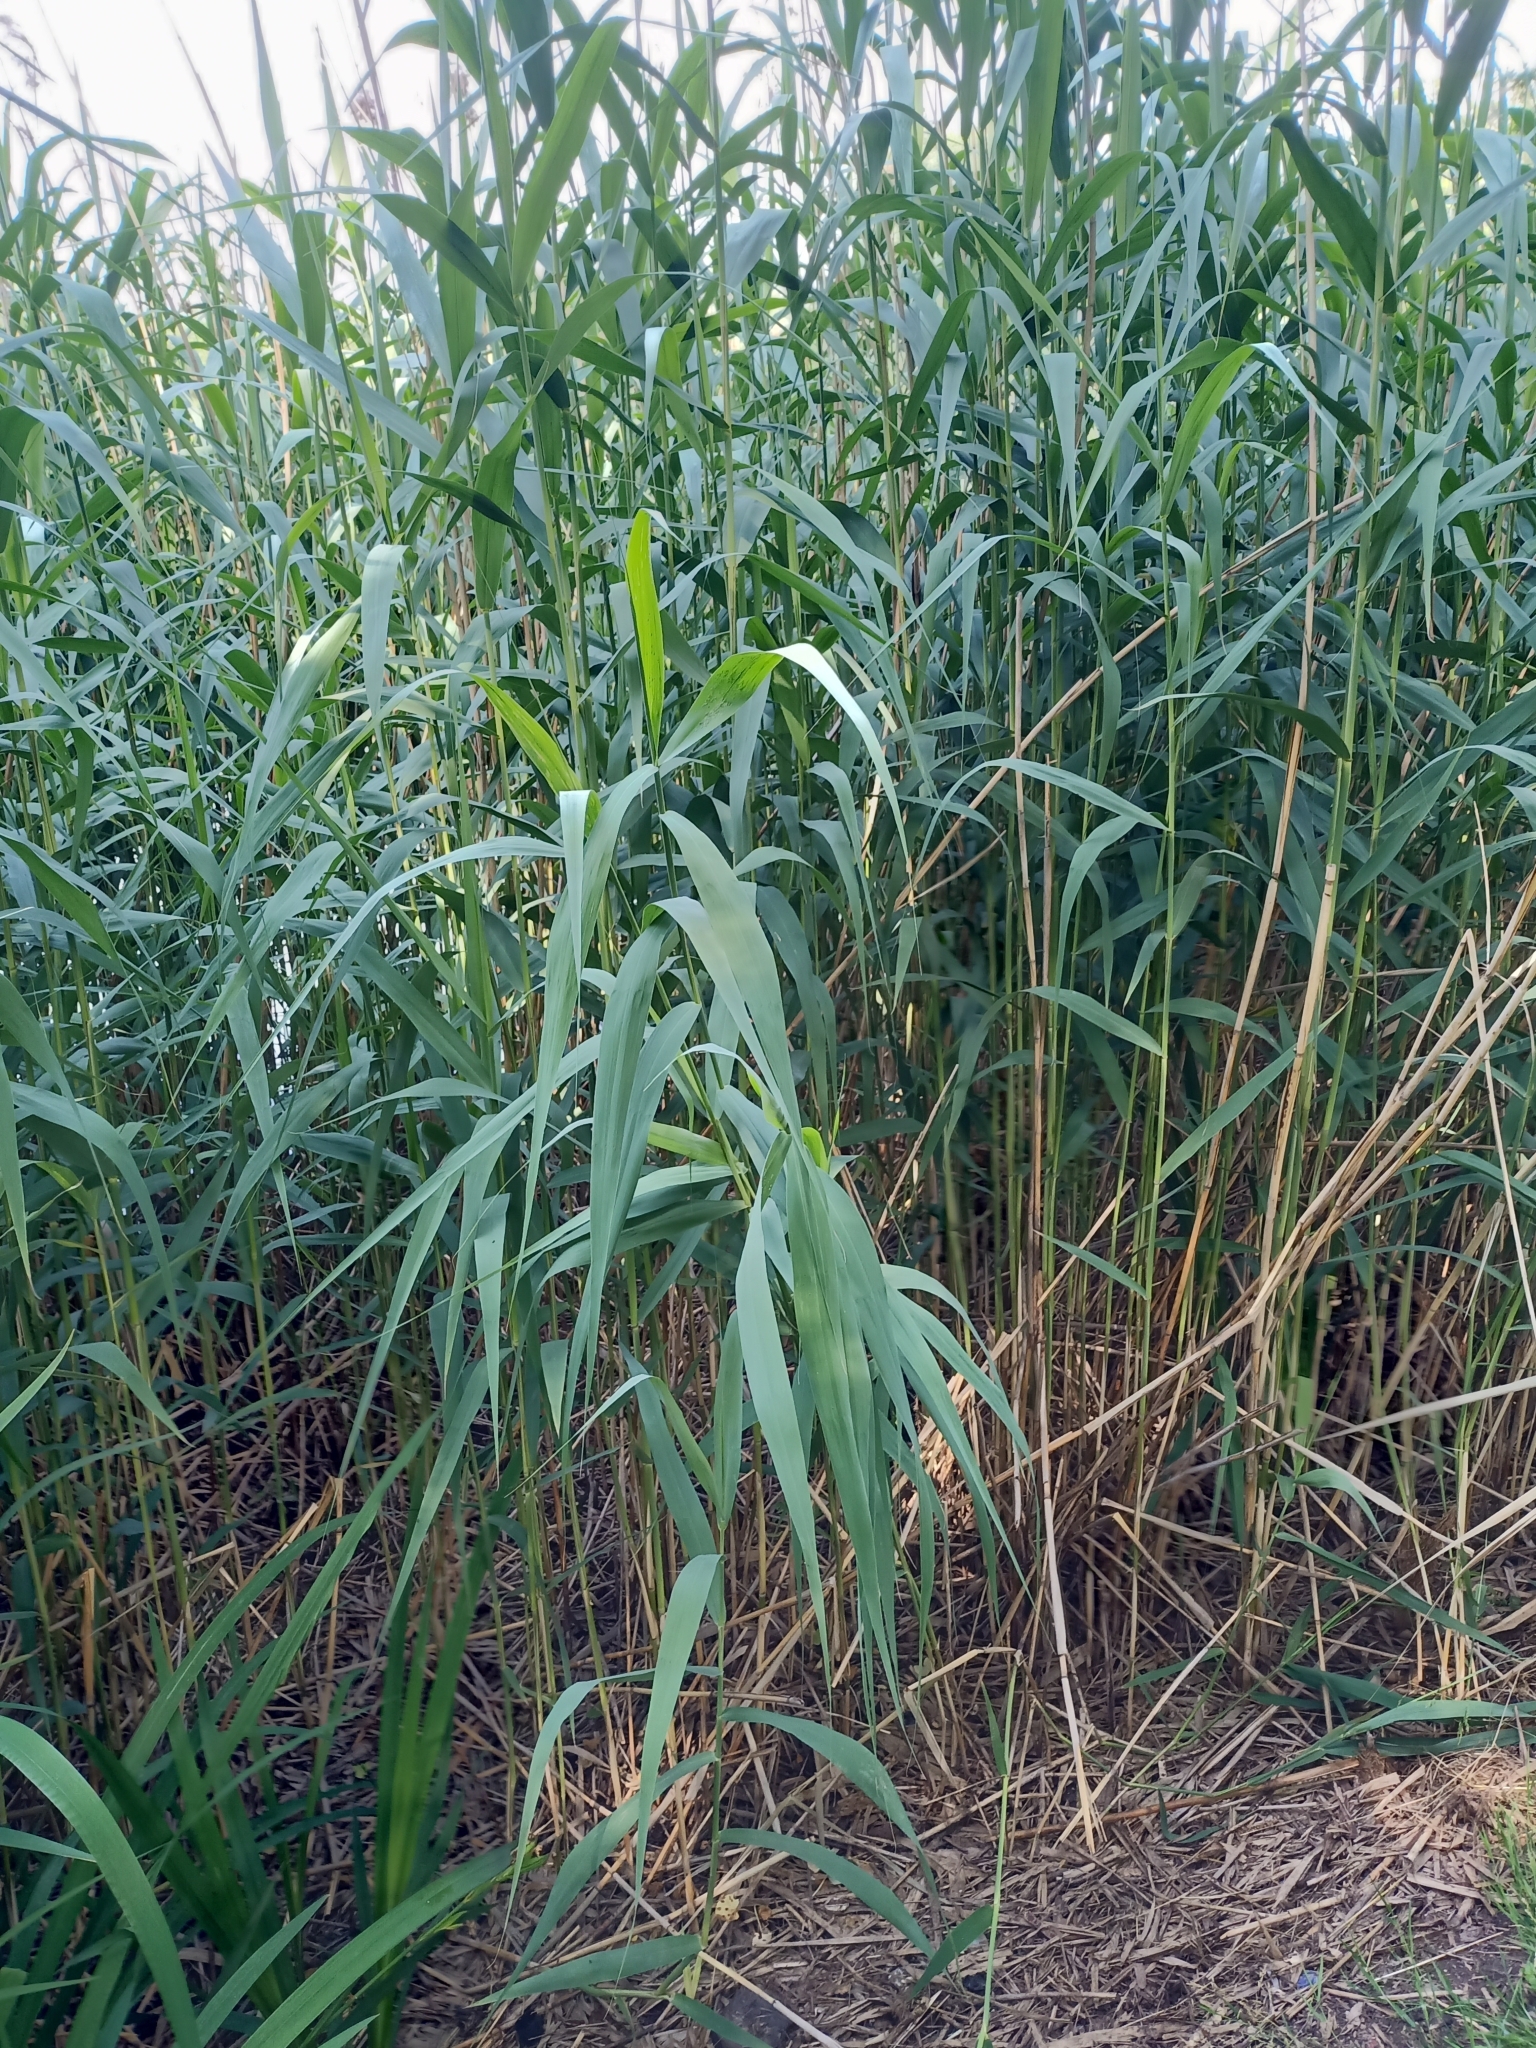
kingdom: Plantae
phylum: Tracheophyta
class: Liliopsida
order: Poales
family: Poaceae
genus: Phragmites
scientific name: Phragmites australis
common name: Common reed
